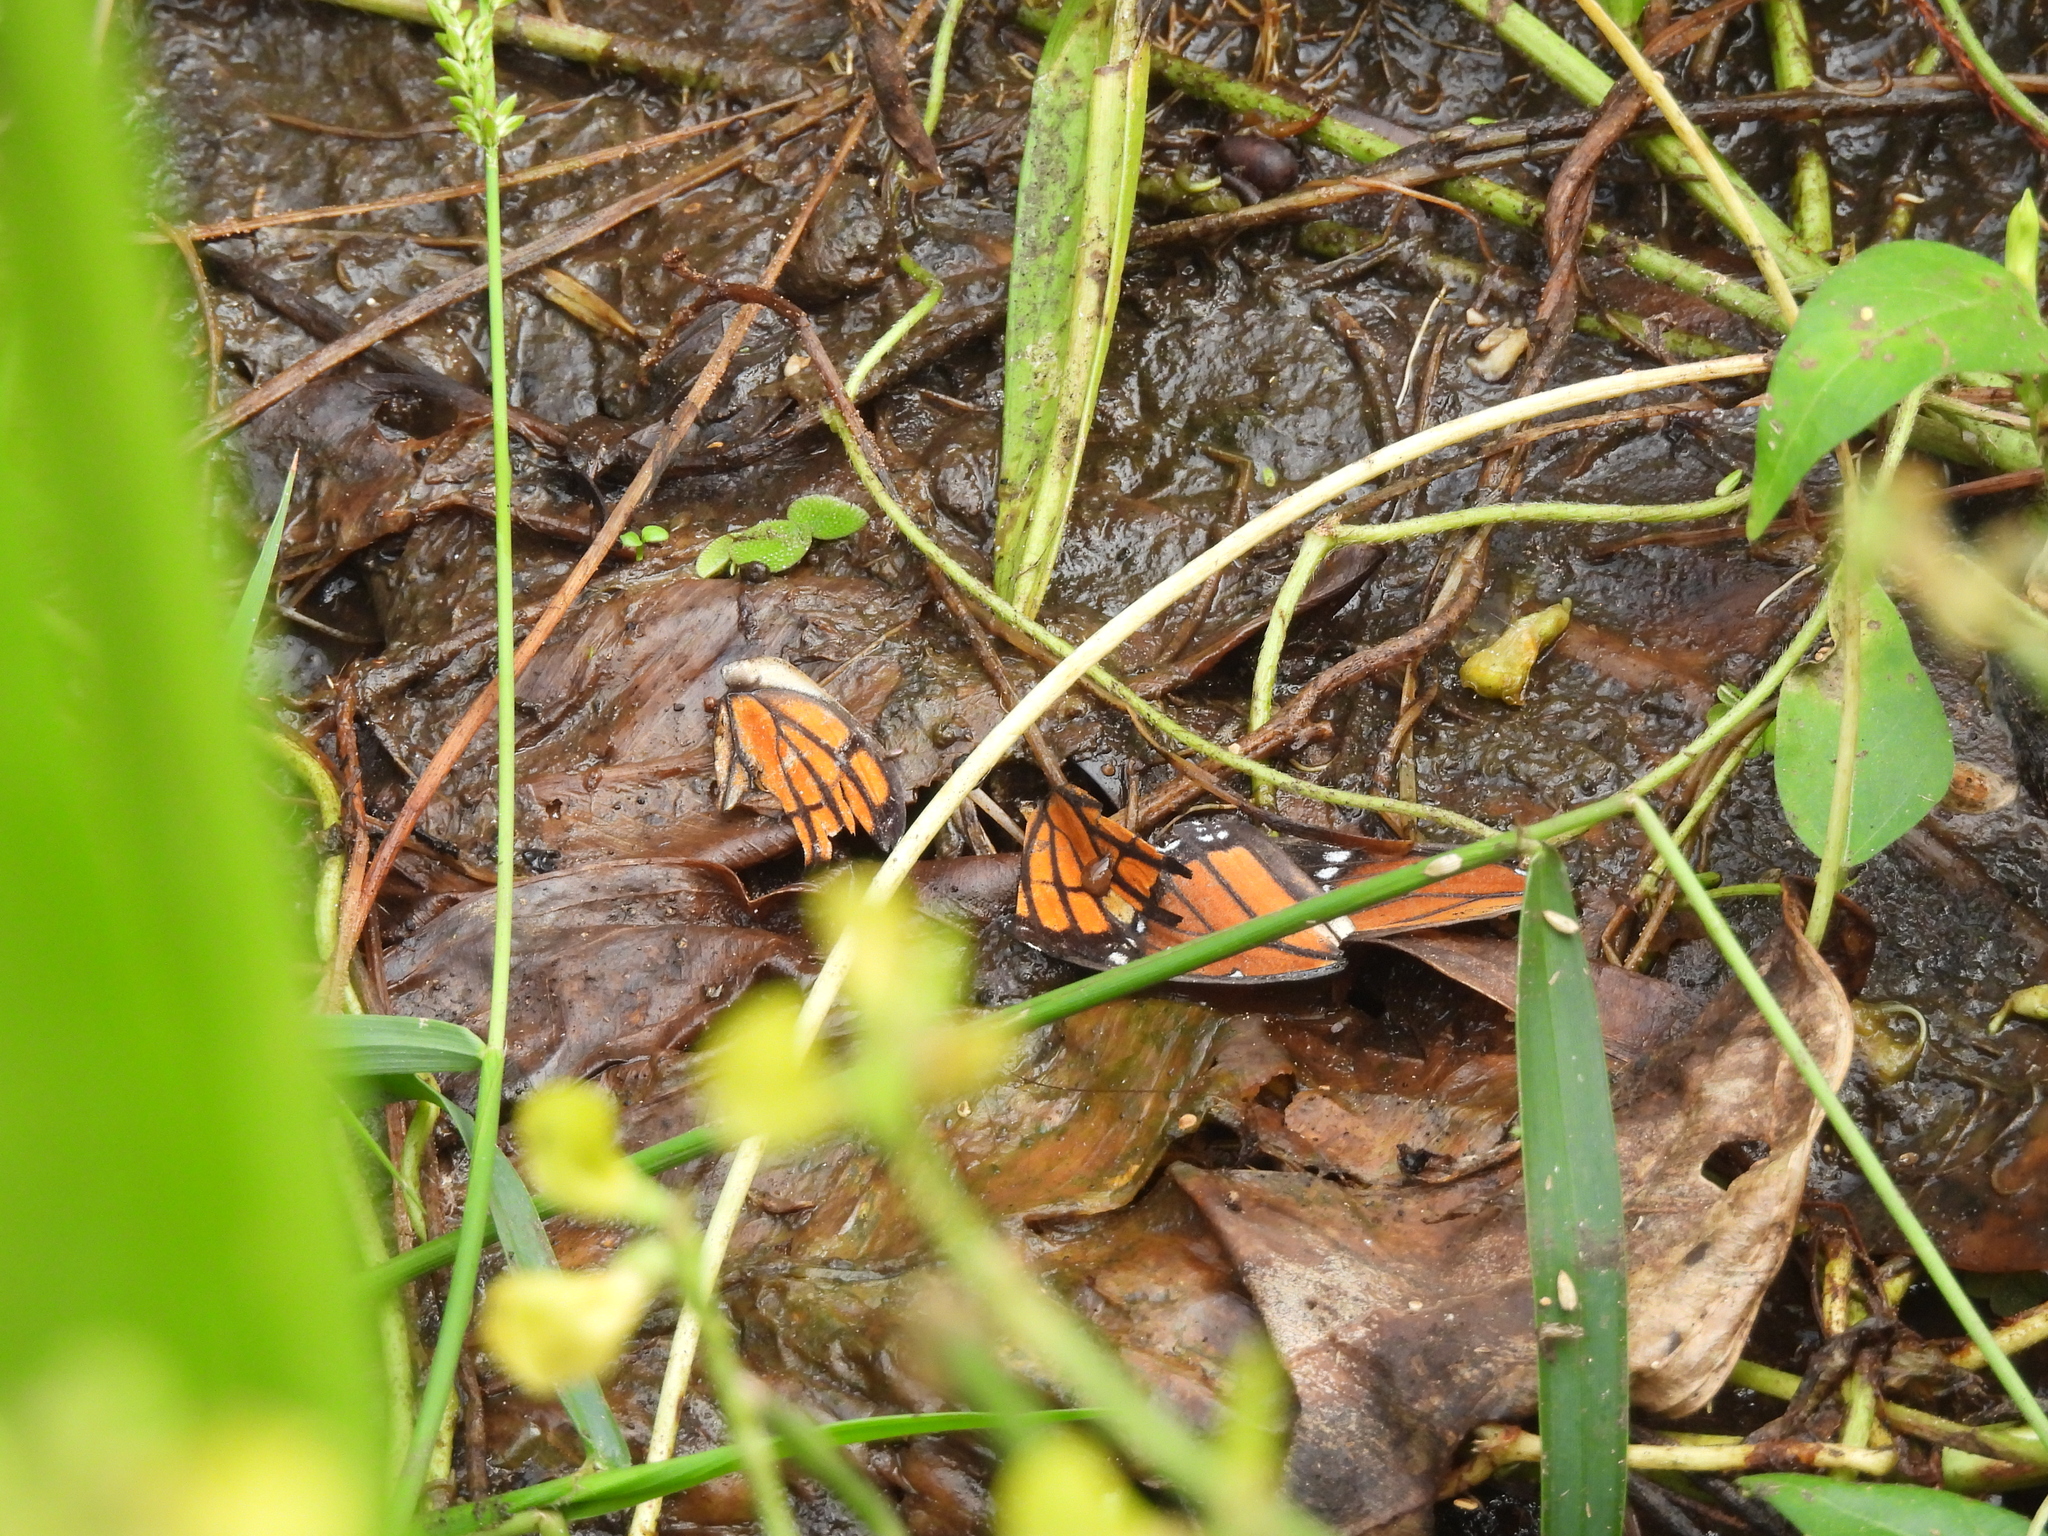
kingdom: Animalia
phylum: Arthropoda
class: Insecta
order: Lepidoptera
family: Nymphalidae
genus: Limenitis
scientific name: Limenitis archippus
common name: Viceroy
